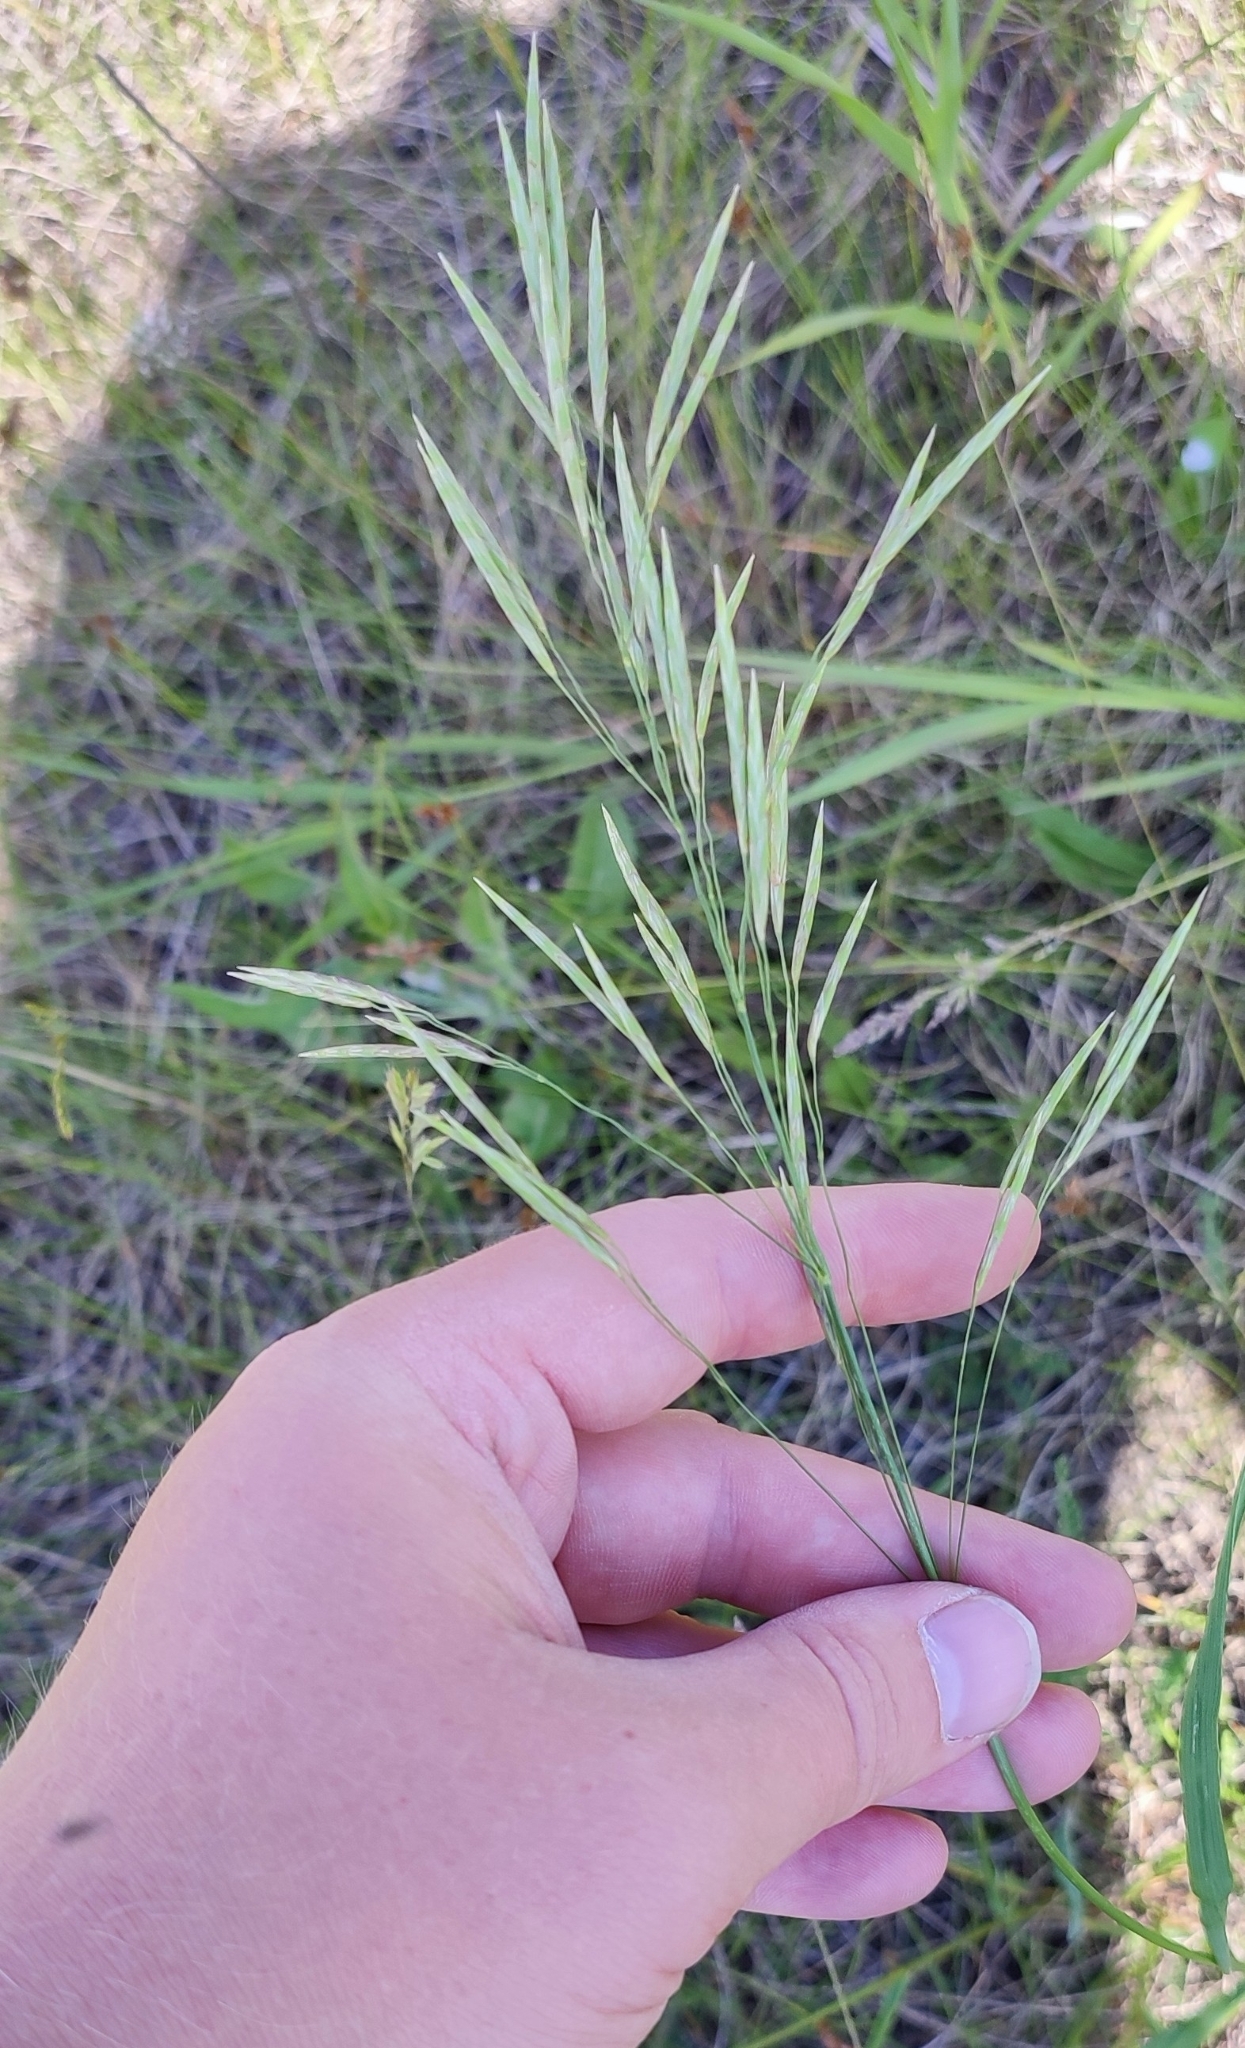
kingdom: Plantae
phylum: Tracheophyta
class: Liliopsida
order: Poales
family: Poaceae
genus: Bromus
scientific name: Bromus inermis
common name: Smooth brome
